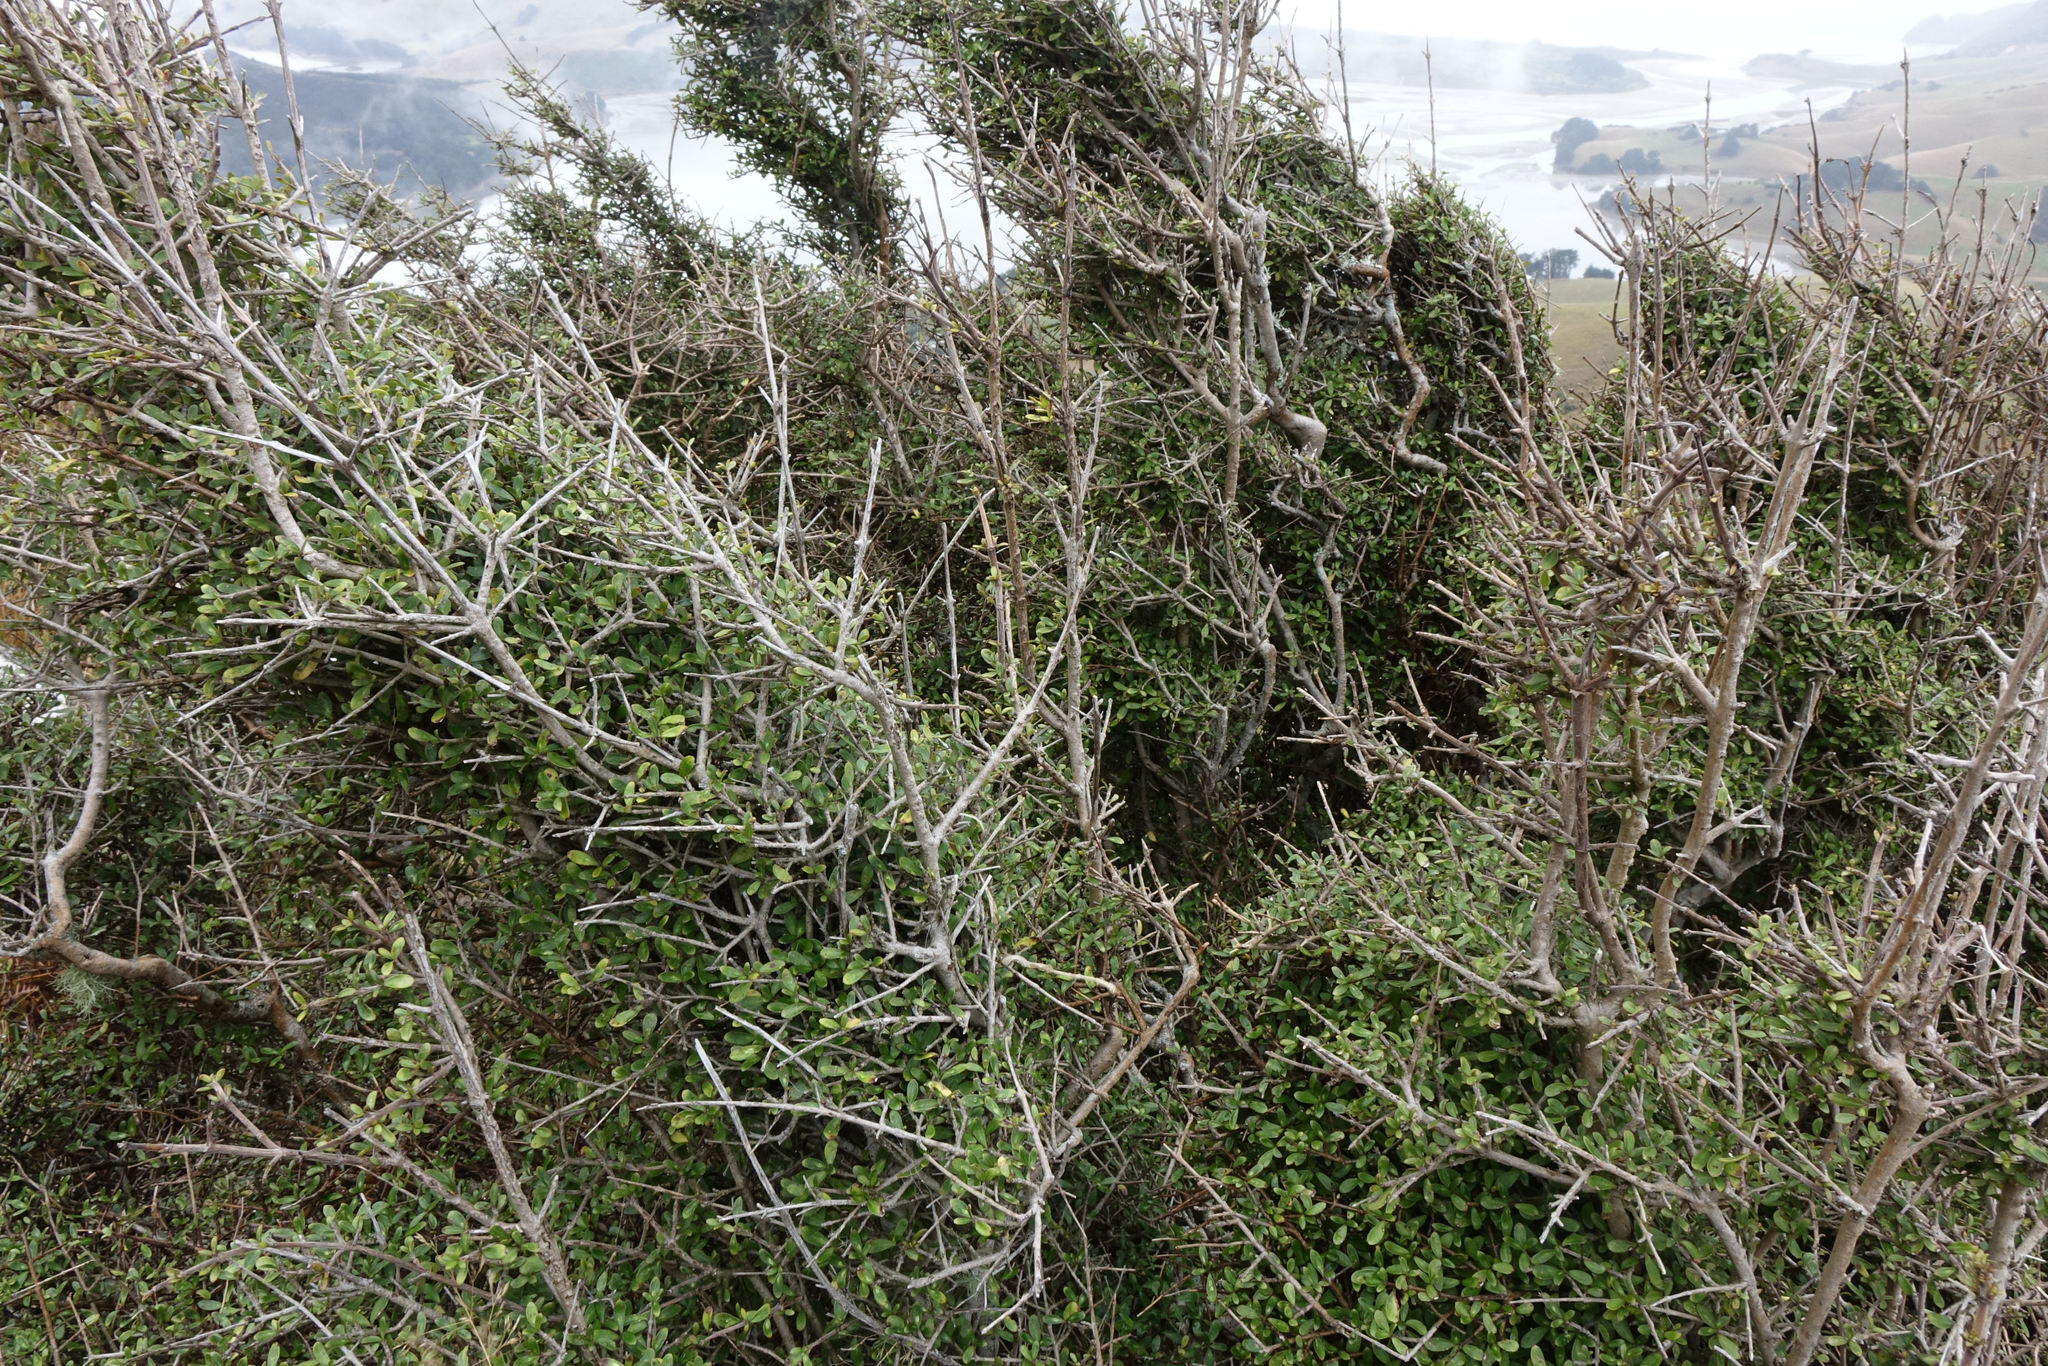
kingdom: Plantae
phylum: Tracheophyta
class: Magnoliopsida
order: Gentianales
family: Rubiaceae
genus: Coprosma
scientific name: Coprosma dumosa
